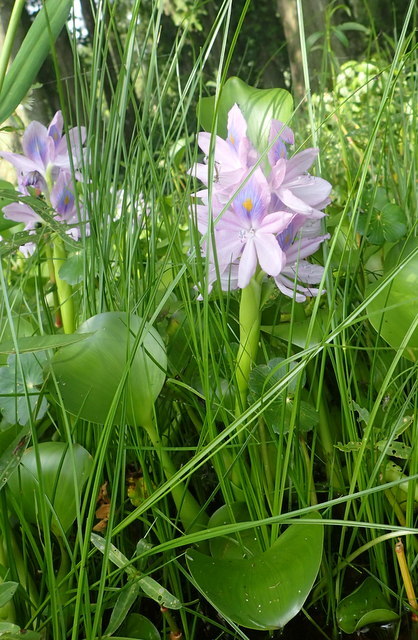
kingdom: Plantae
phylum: Tracheophyta
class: Liliopsida
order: Commelinales
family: Pontederiaceae
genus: Pontederia
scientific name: Pontederia crassipes
